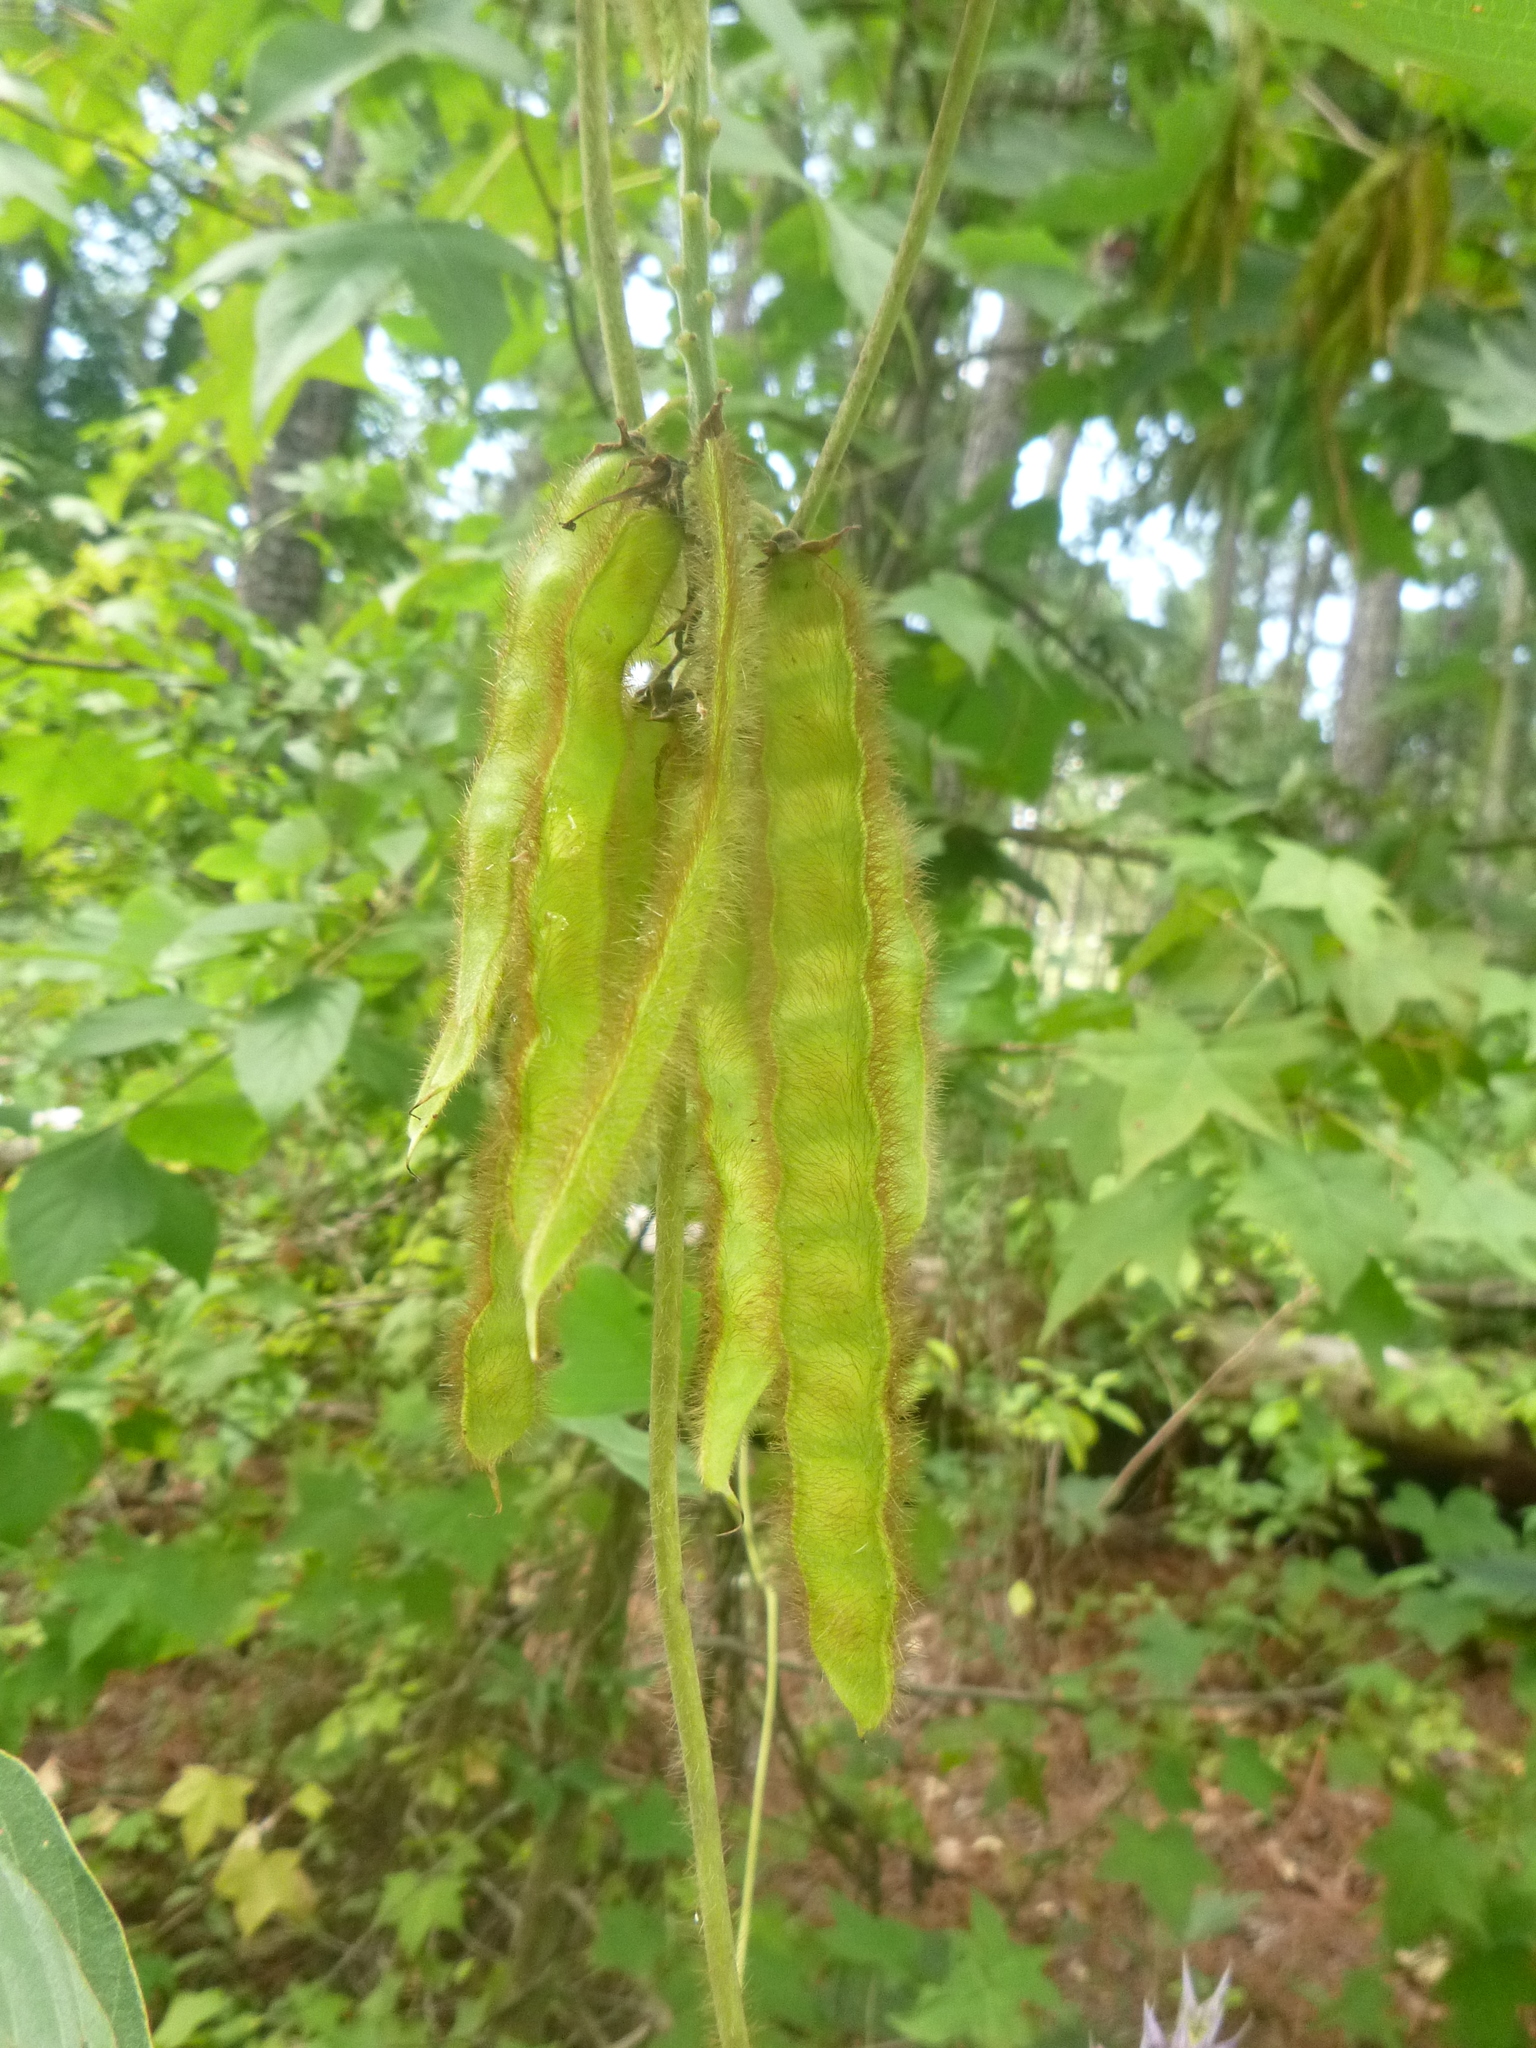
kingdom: Plantae
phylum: Tracheophyta
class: Magnoliopsida
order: Fabales
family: Fabaceae
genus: Pueraria
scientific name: Pueraria montana
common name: Kudzu
